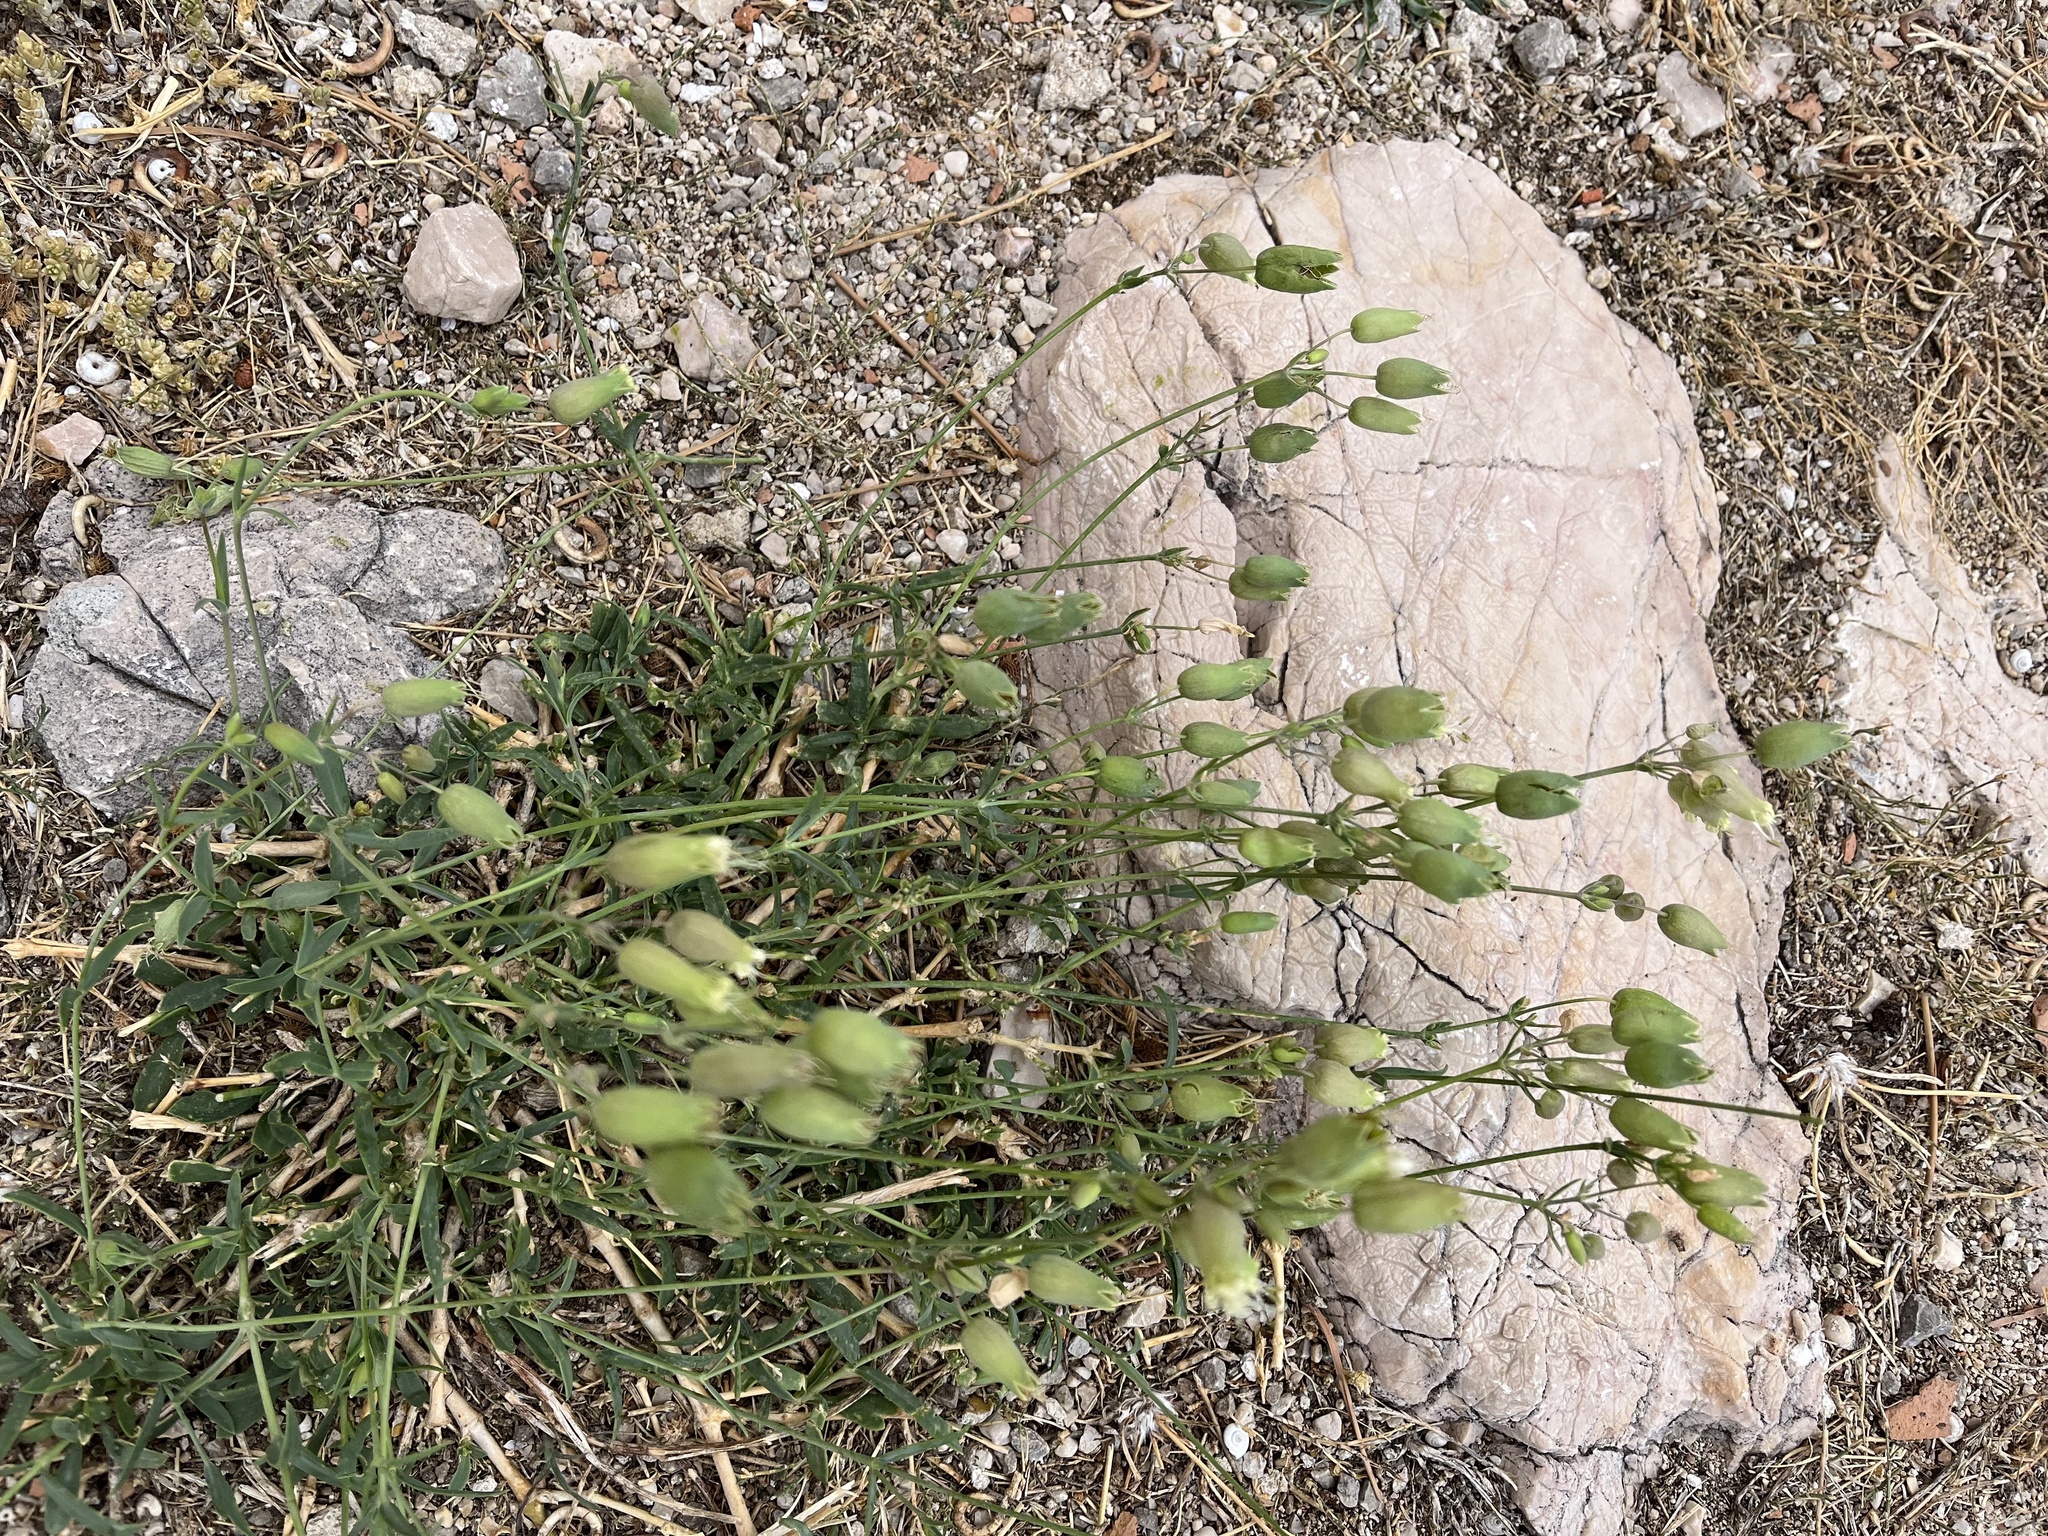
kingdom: Plantae
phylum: Tracheophyta
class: Magnoliopsida
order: Caryophyllales
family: Caryophyllaceae
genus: Silene
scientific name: Silene vulgaris
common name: Bladder campion
